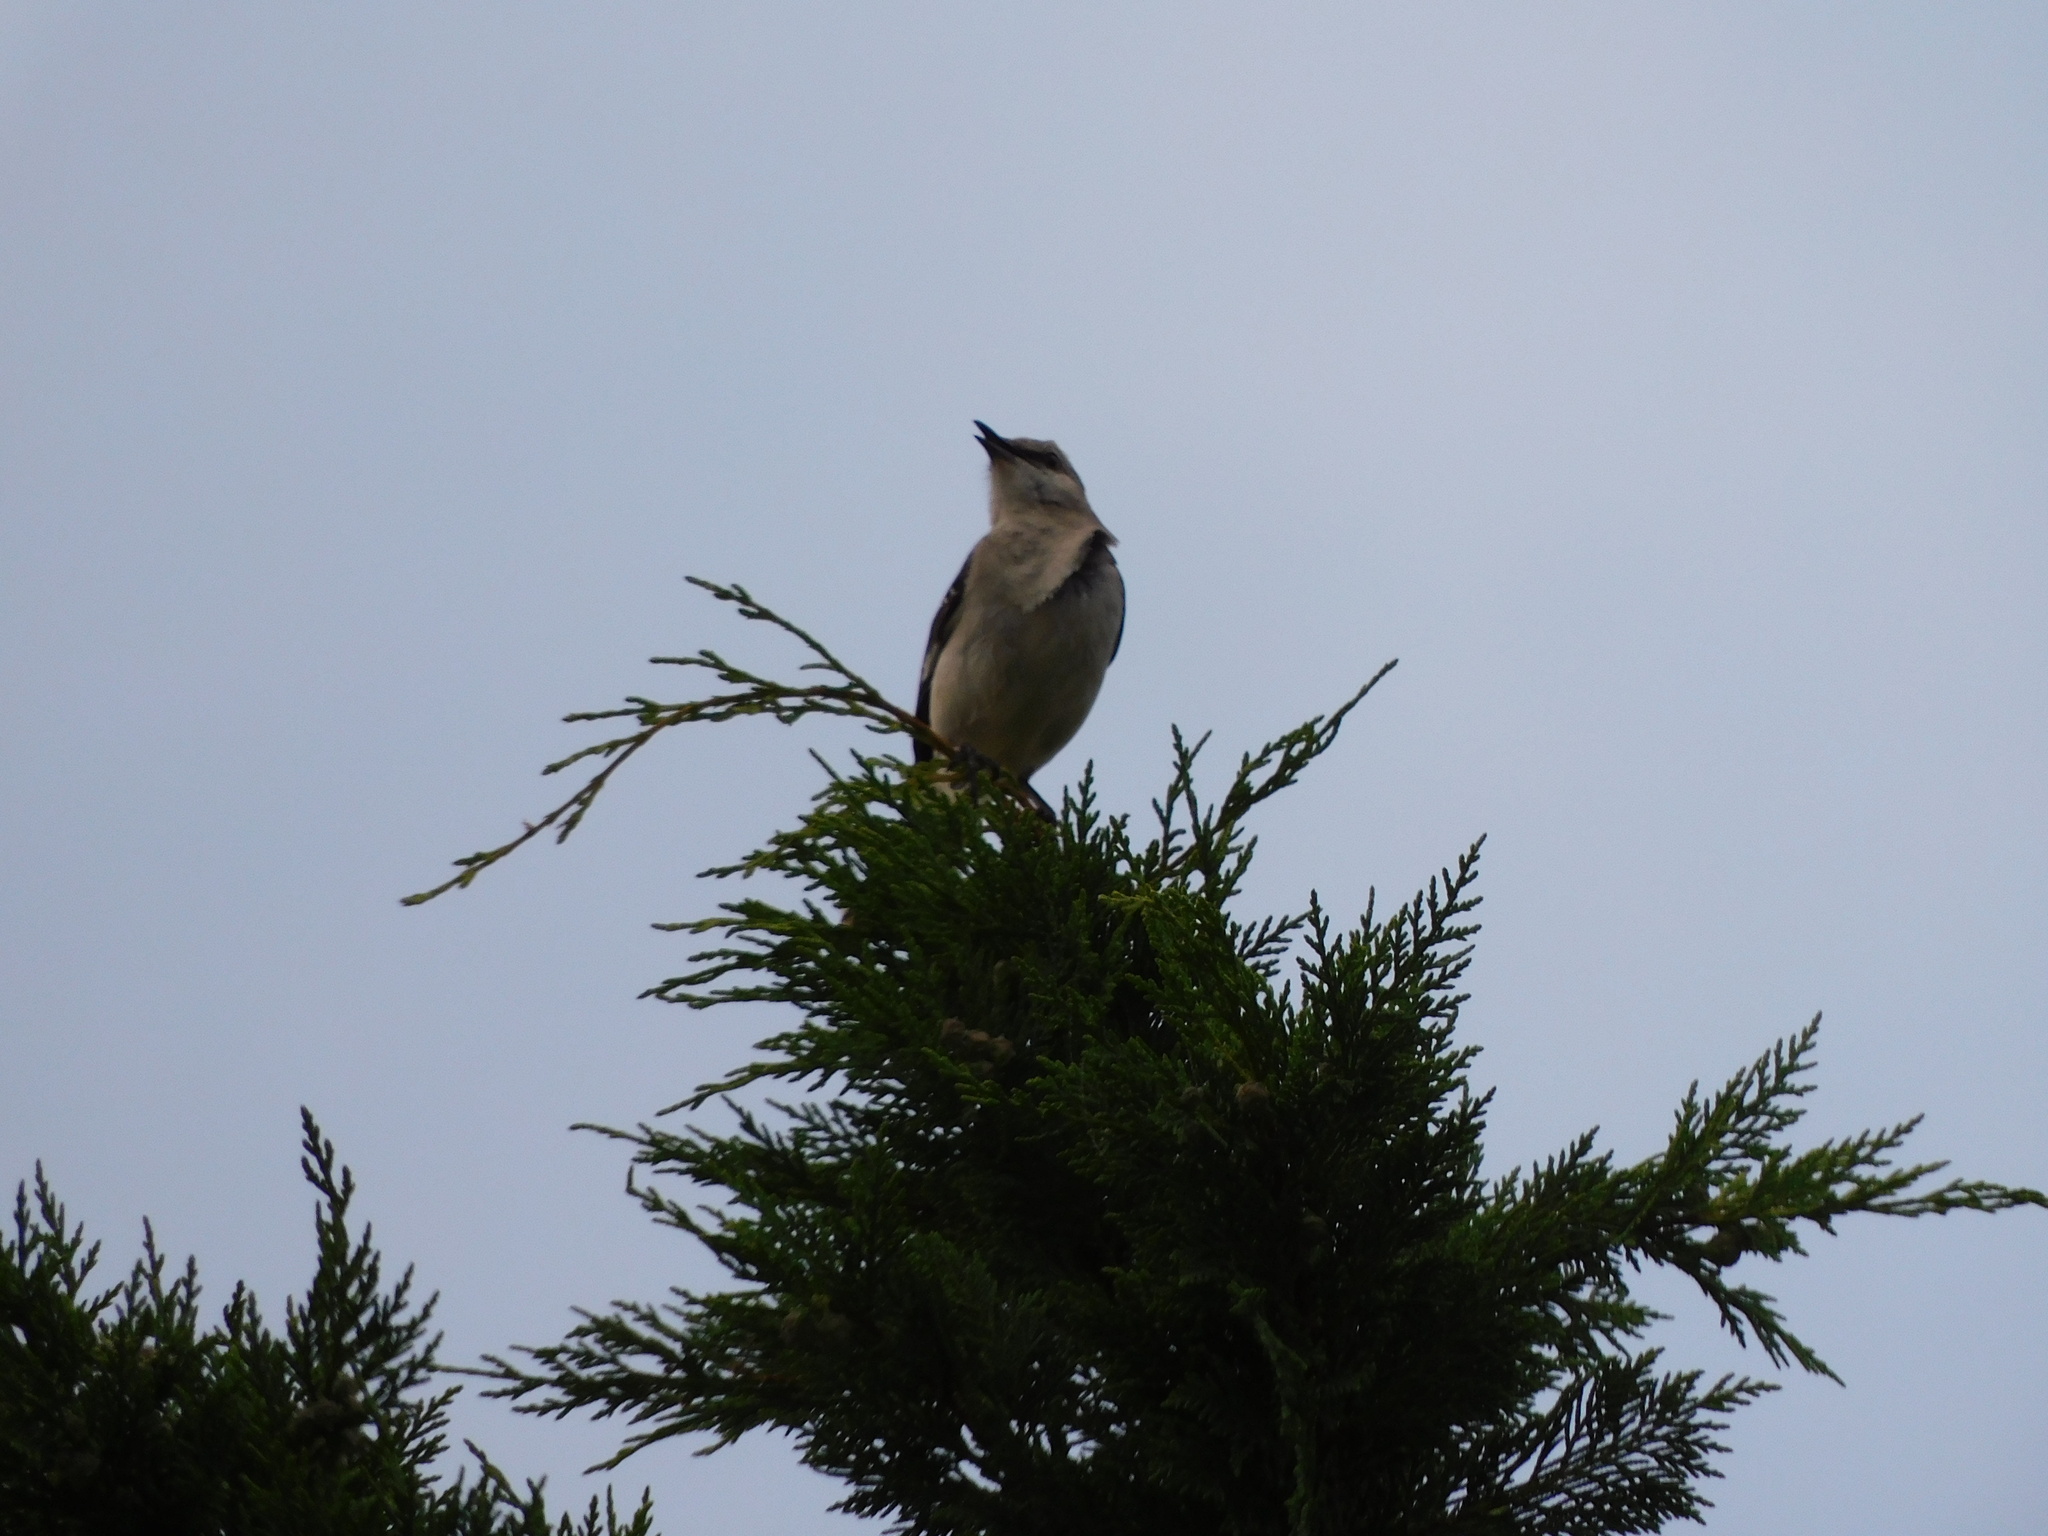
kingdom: Animalia
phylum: Chordata
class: Aves
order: Passeriformes
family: Mimidae
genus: Mimus
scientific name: Mimus polyglottos
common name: Northern mockingbird
